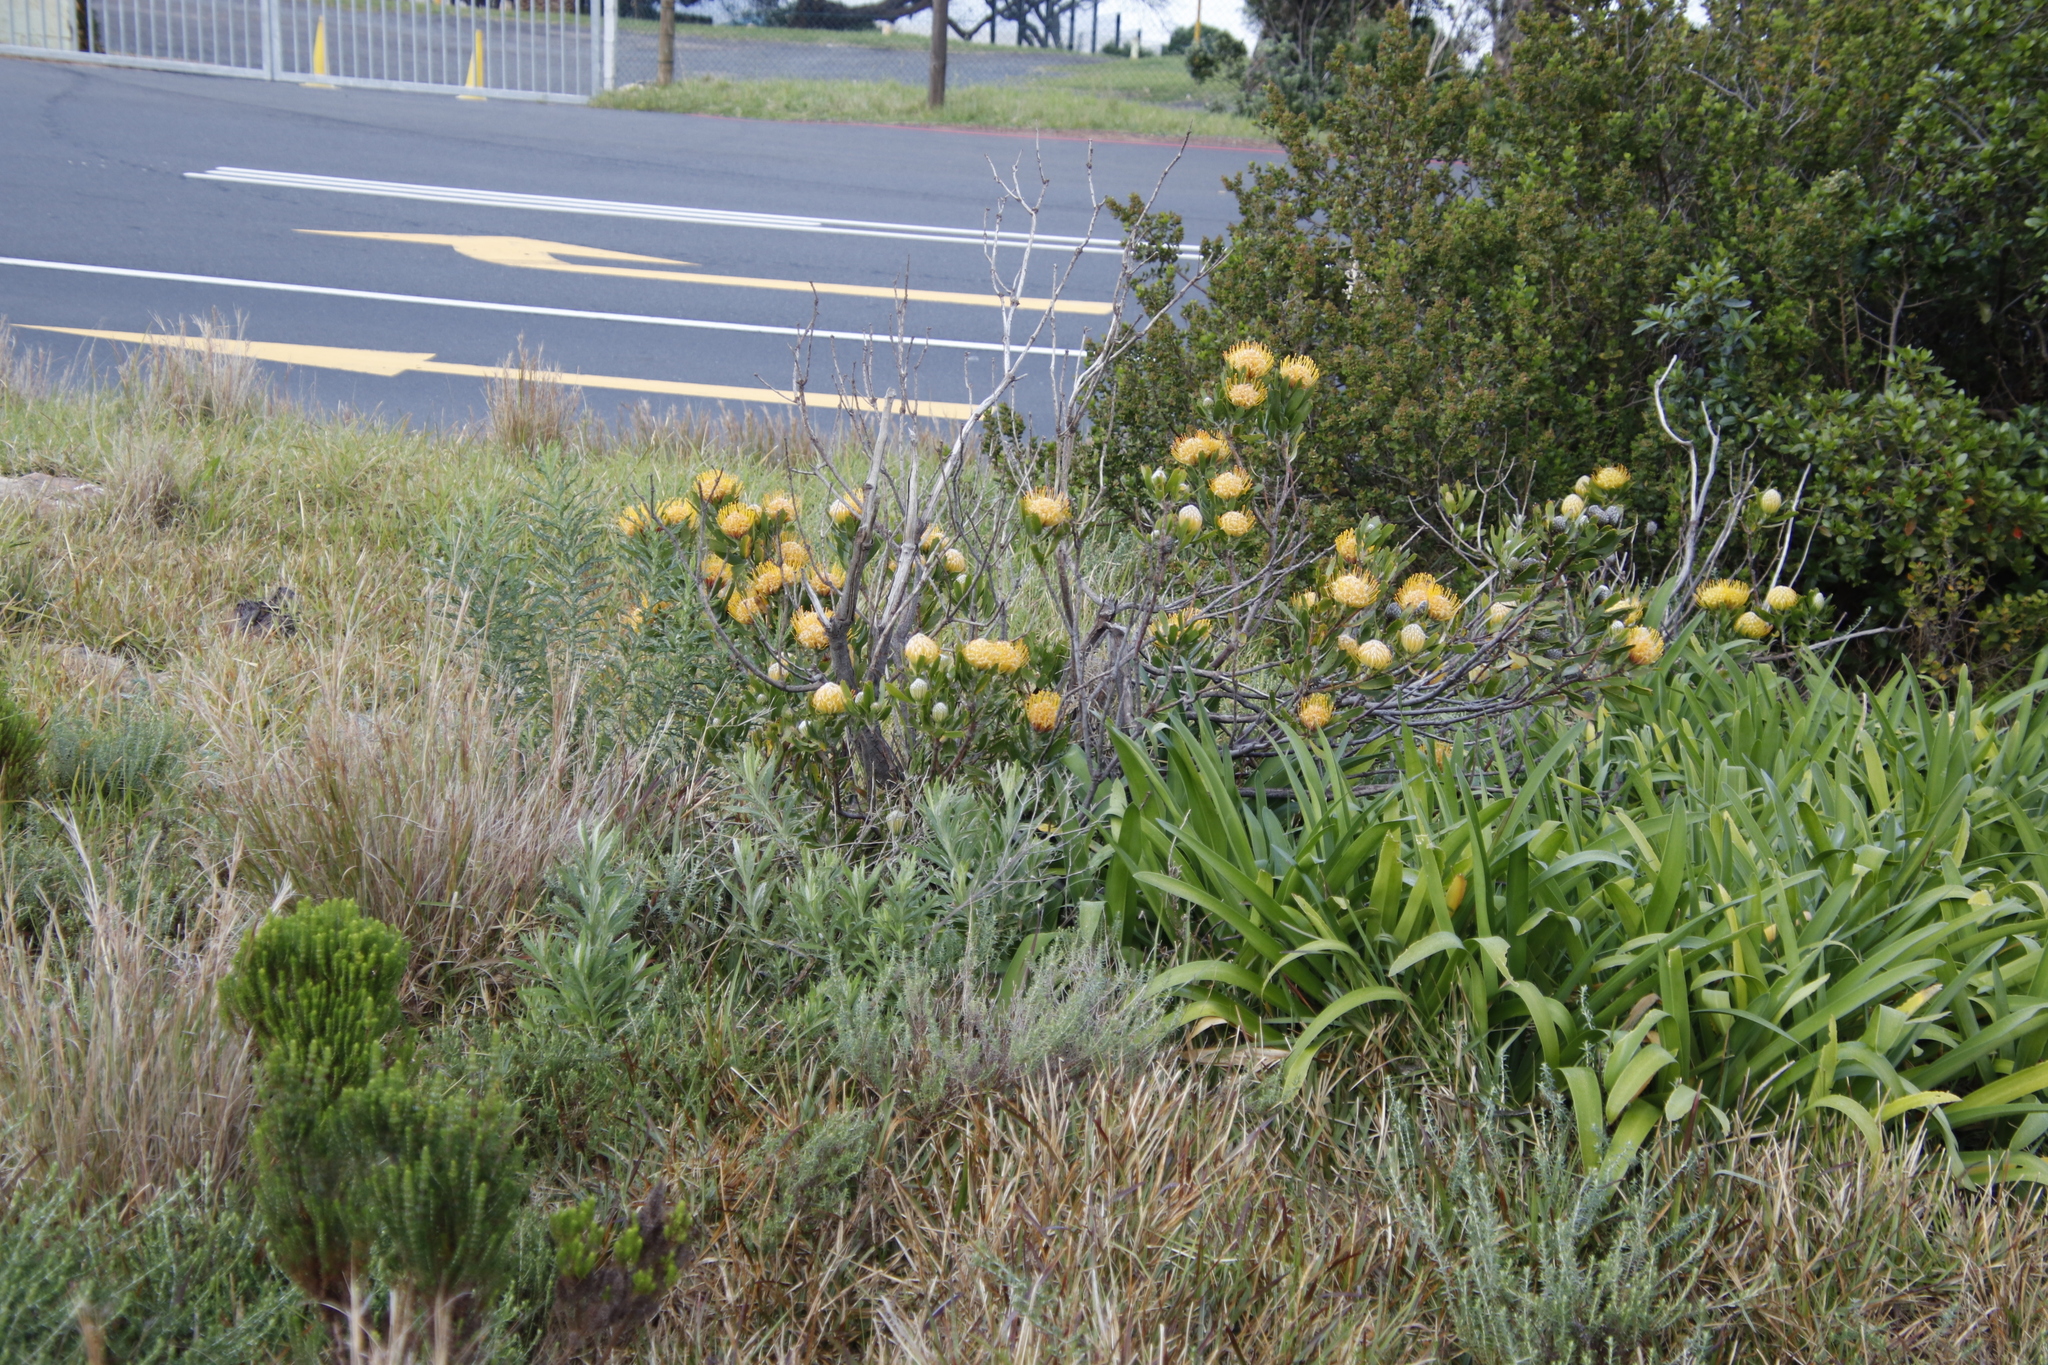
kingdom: Plantae
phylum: Tracheophyta
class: Magnoliopsida
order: Proteales
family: Proteaceae
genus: Leucospermum
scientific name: Leucospermum cuneiforme
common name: Common pincushion
